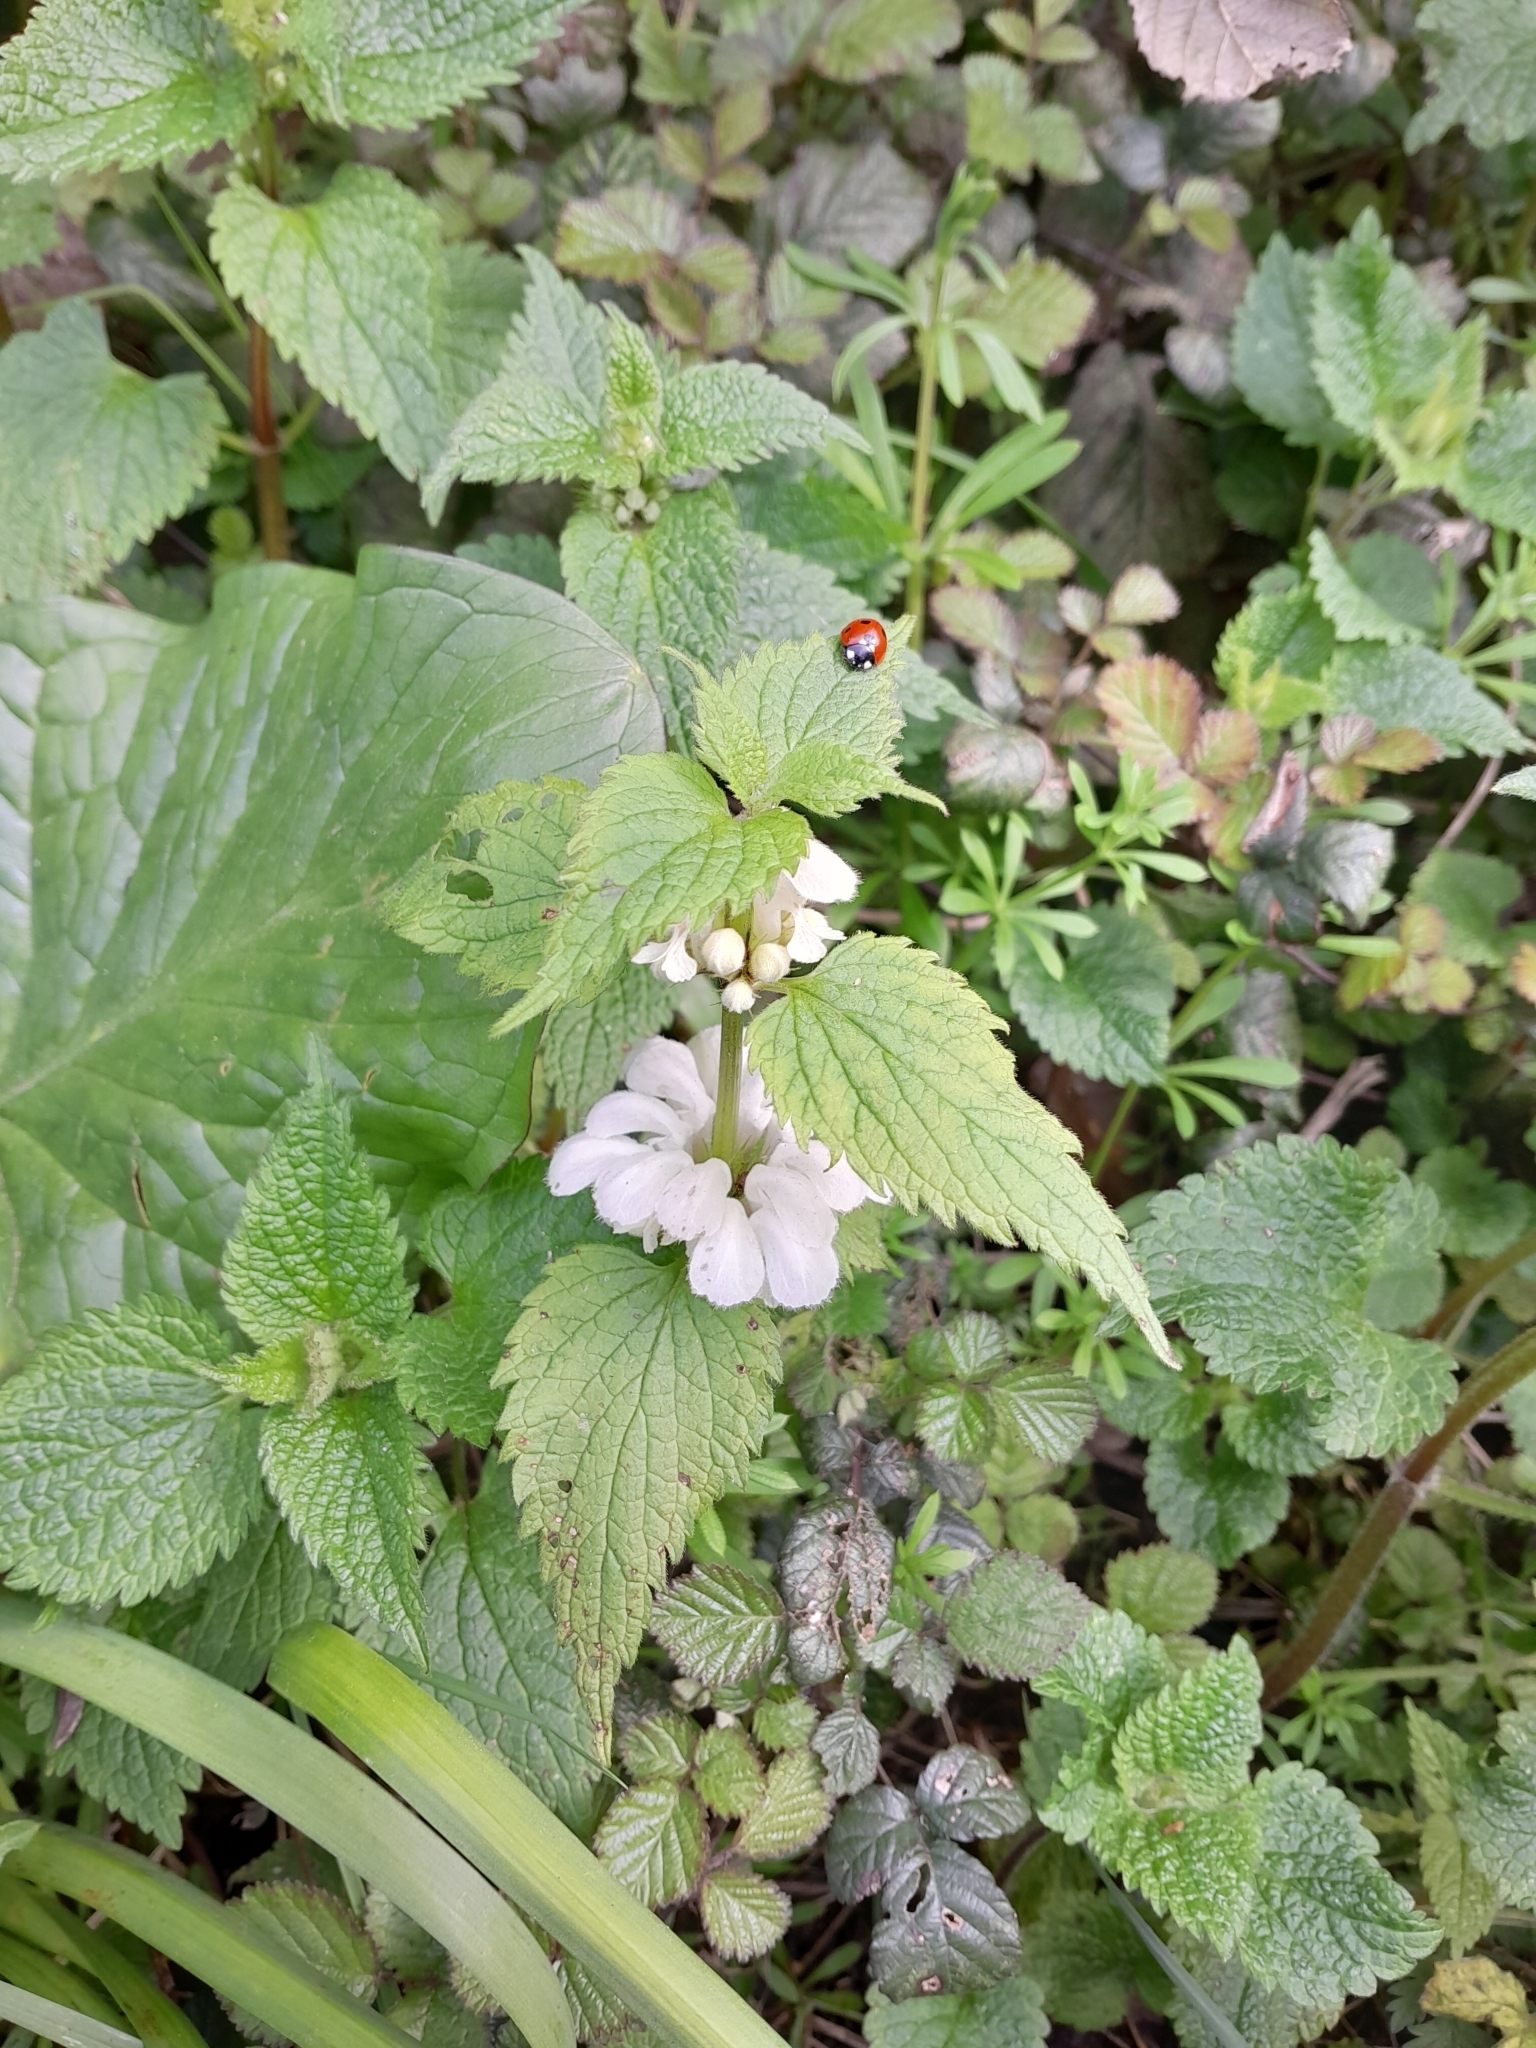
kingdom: Plantae
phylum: Tracheophyta
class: Magnoliopsida
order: Lamiales
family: Lamiaceae
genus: Lamium
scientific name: Lamium album
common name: White dead-nettle
